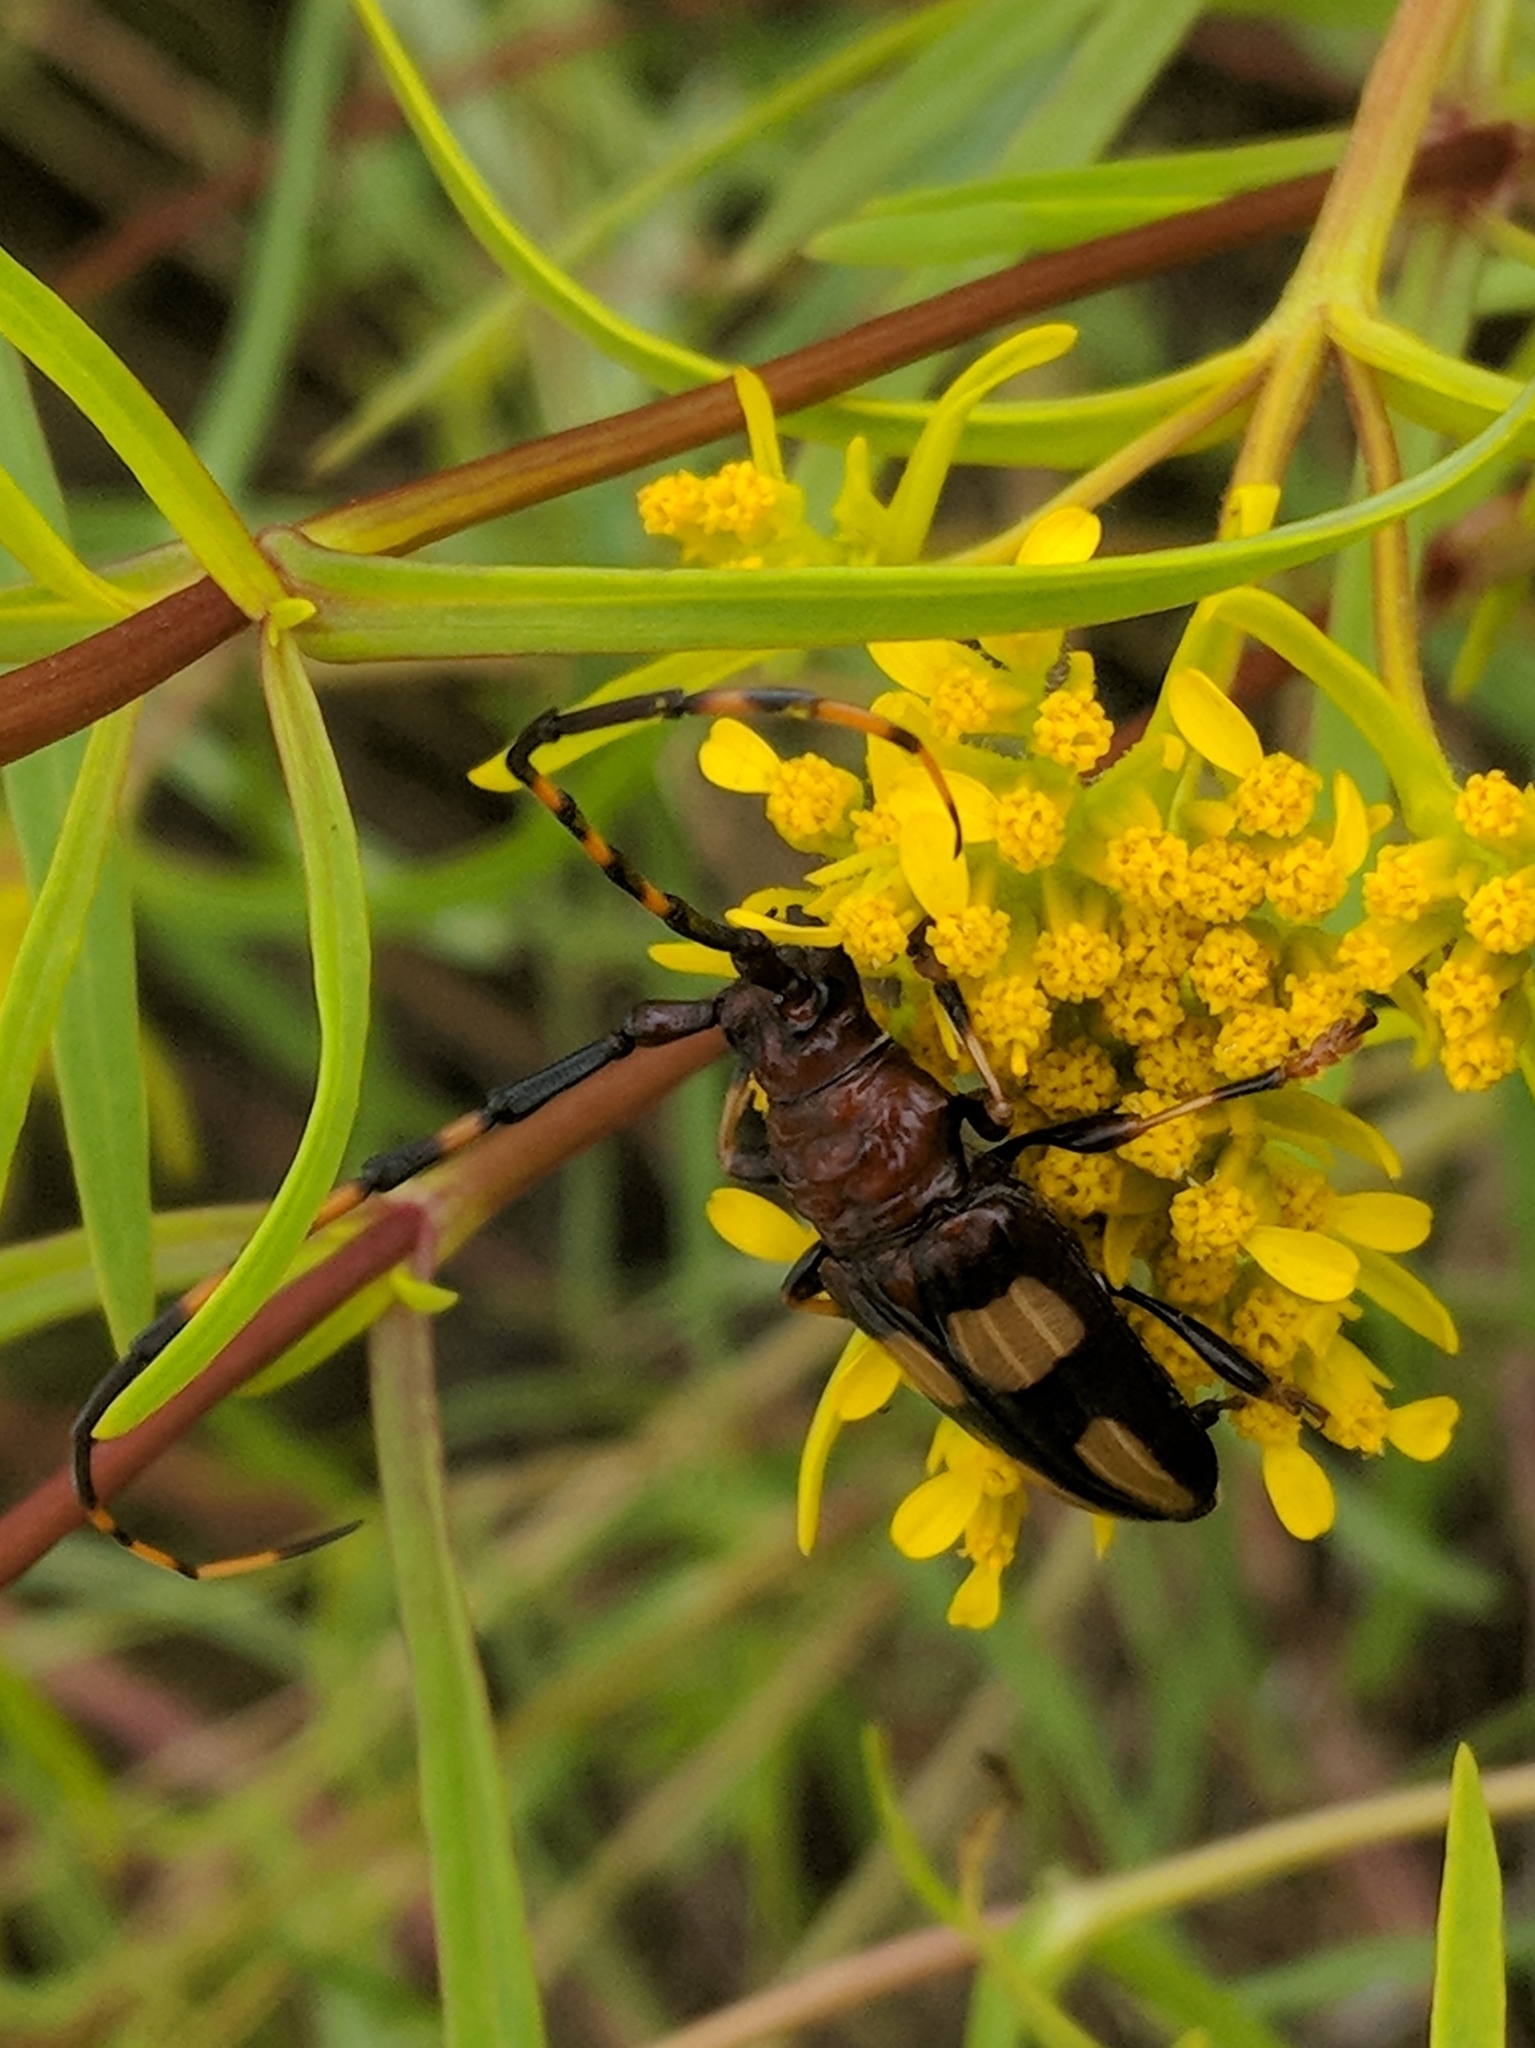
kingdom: Animalia
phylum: Arthropoda
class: Insecta
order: Coleoptera
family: Cerambycidae
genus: Trachyderes
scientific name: Trachyderes mandibularis
